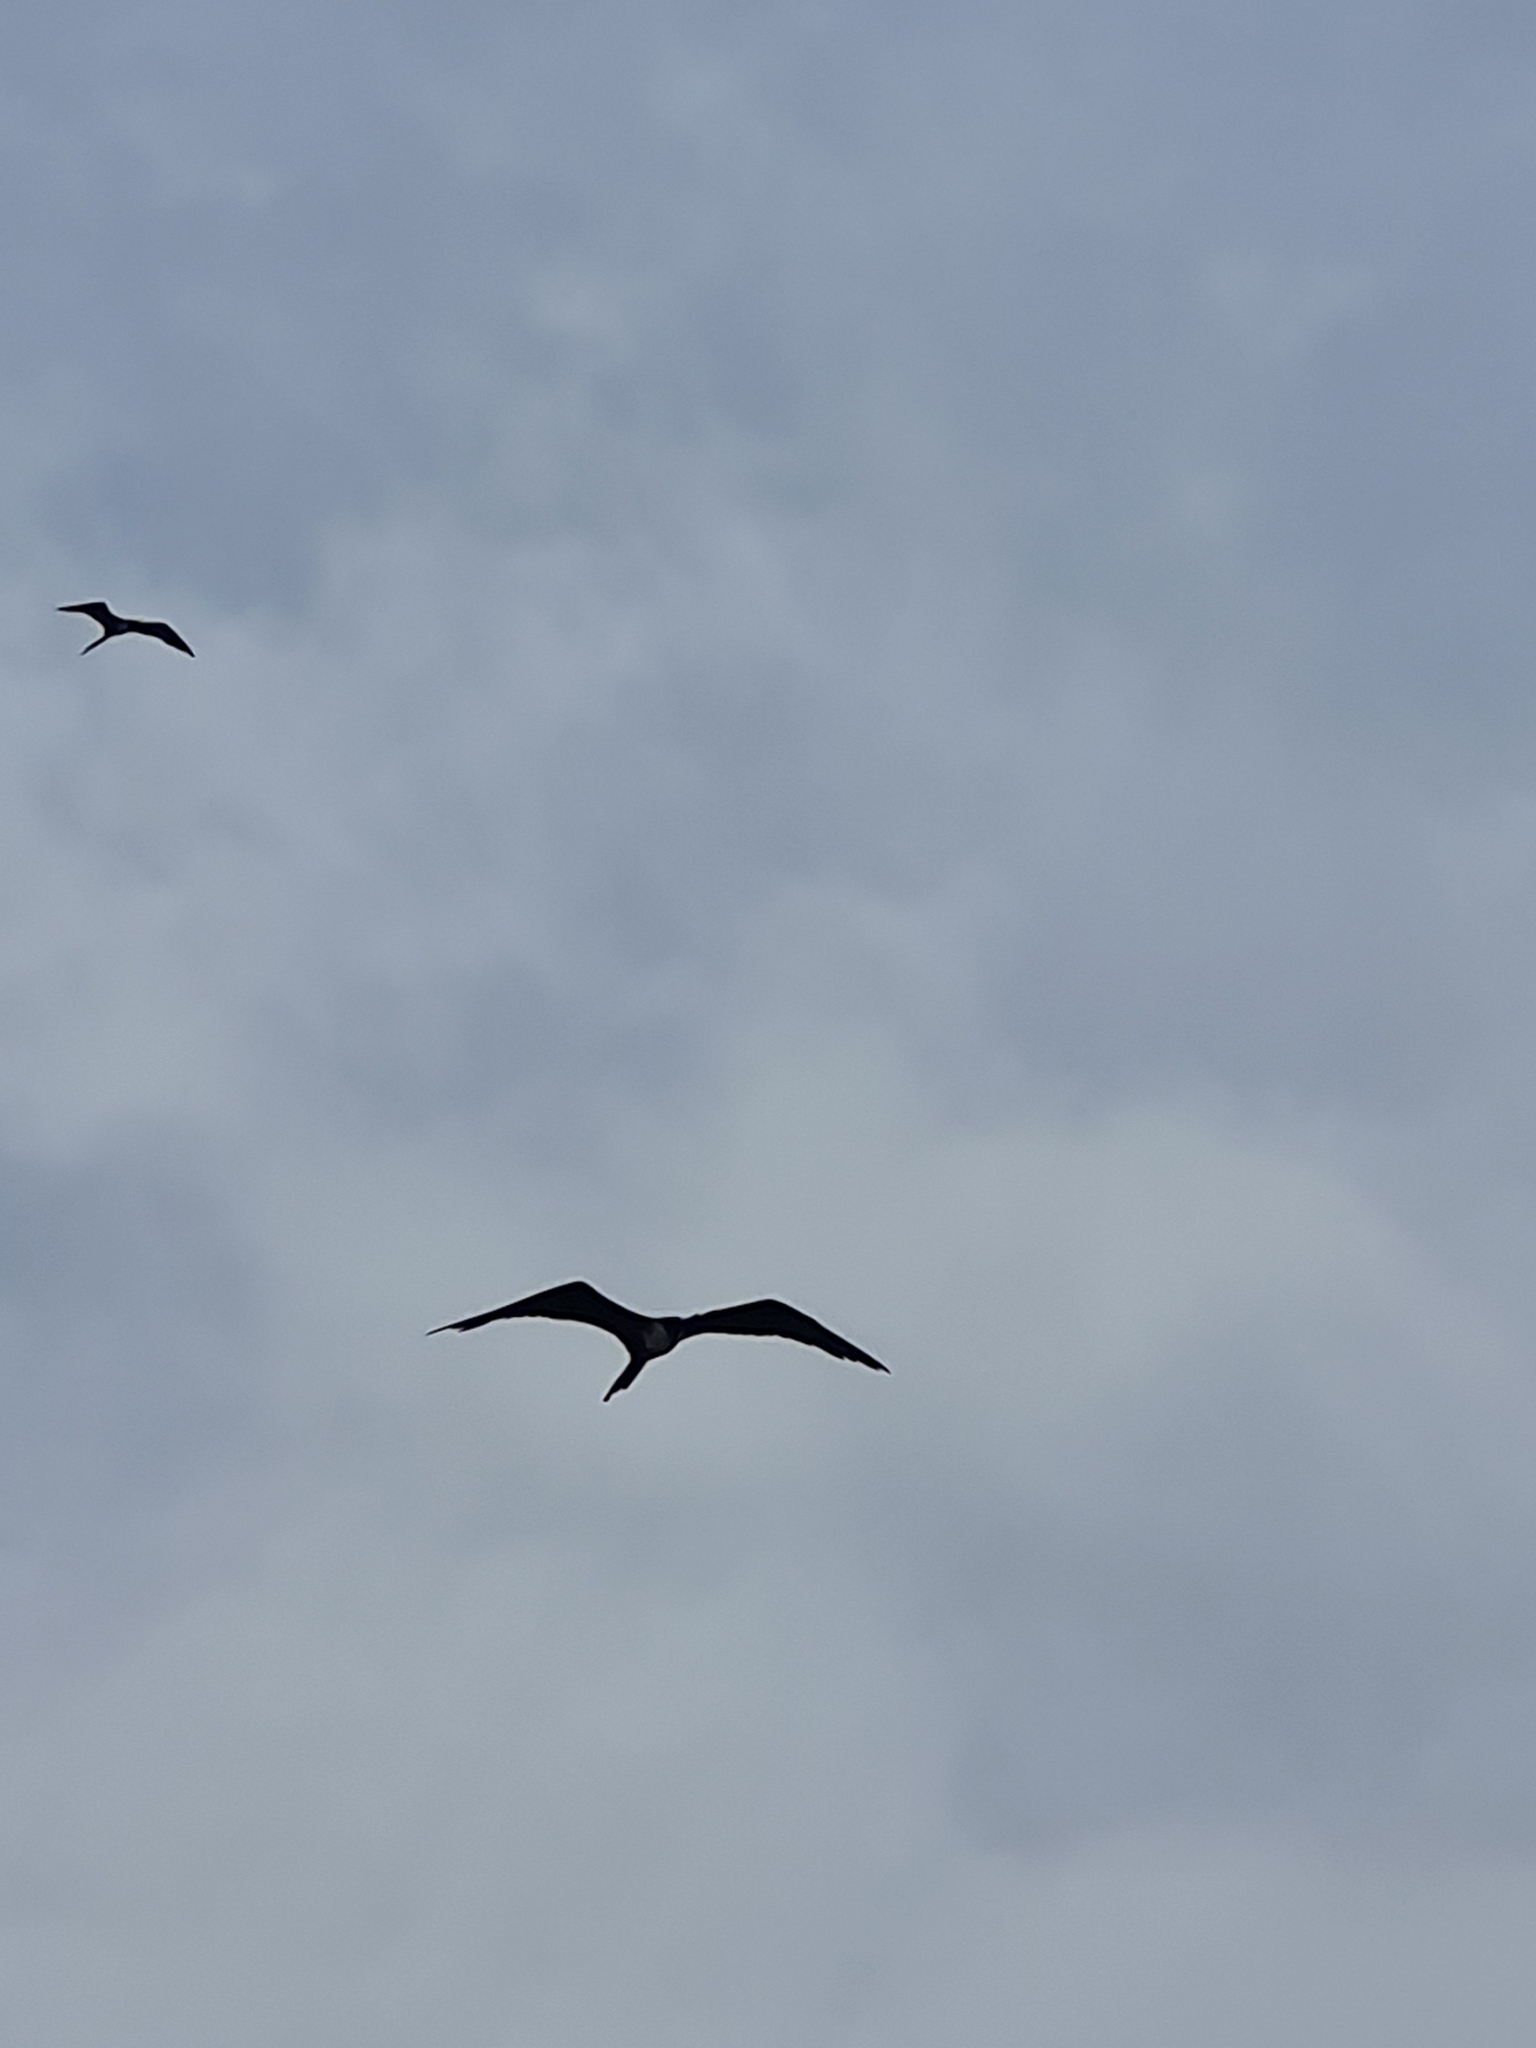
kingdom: Animalia
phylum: Chordata
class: Aves
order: Suliformes
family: Fregatidae
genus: Fregata
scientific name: Fregata magnificens
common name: Magnificent frigatebird
